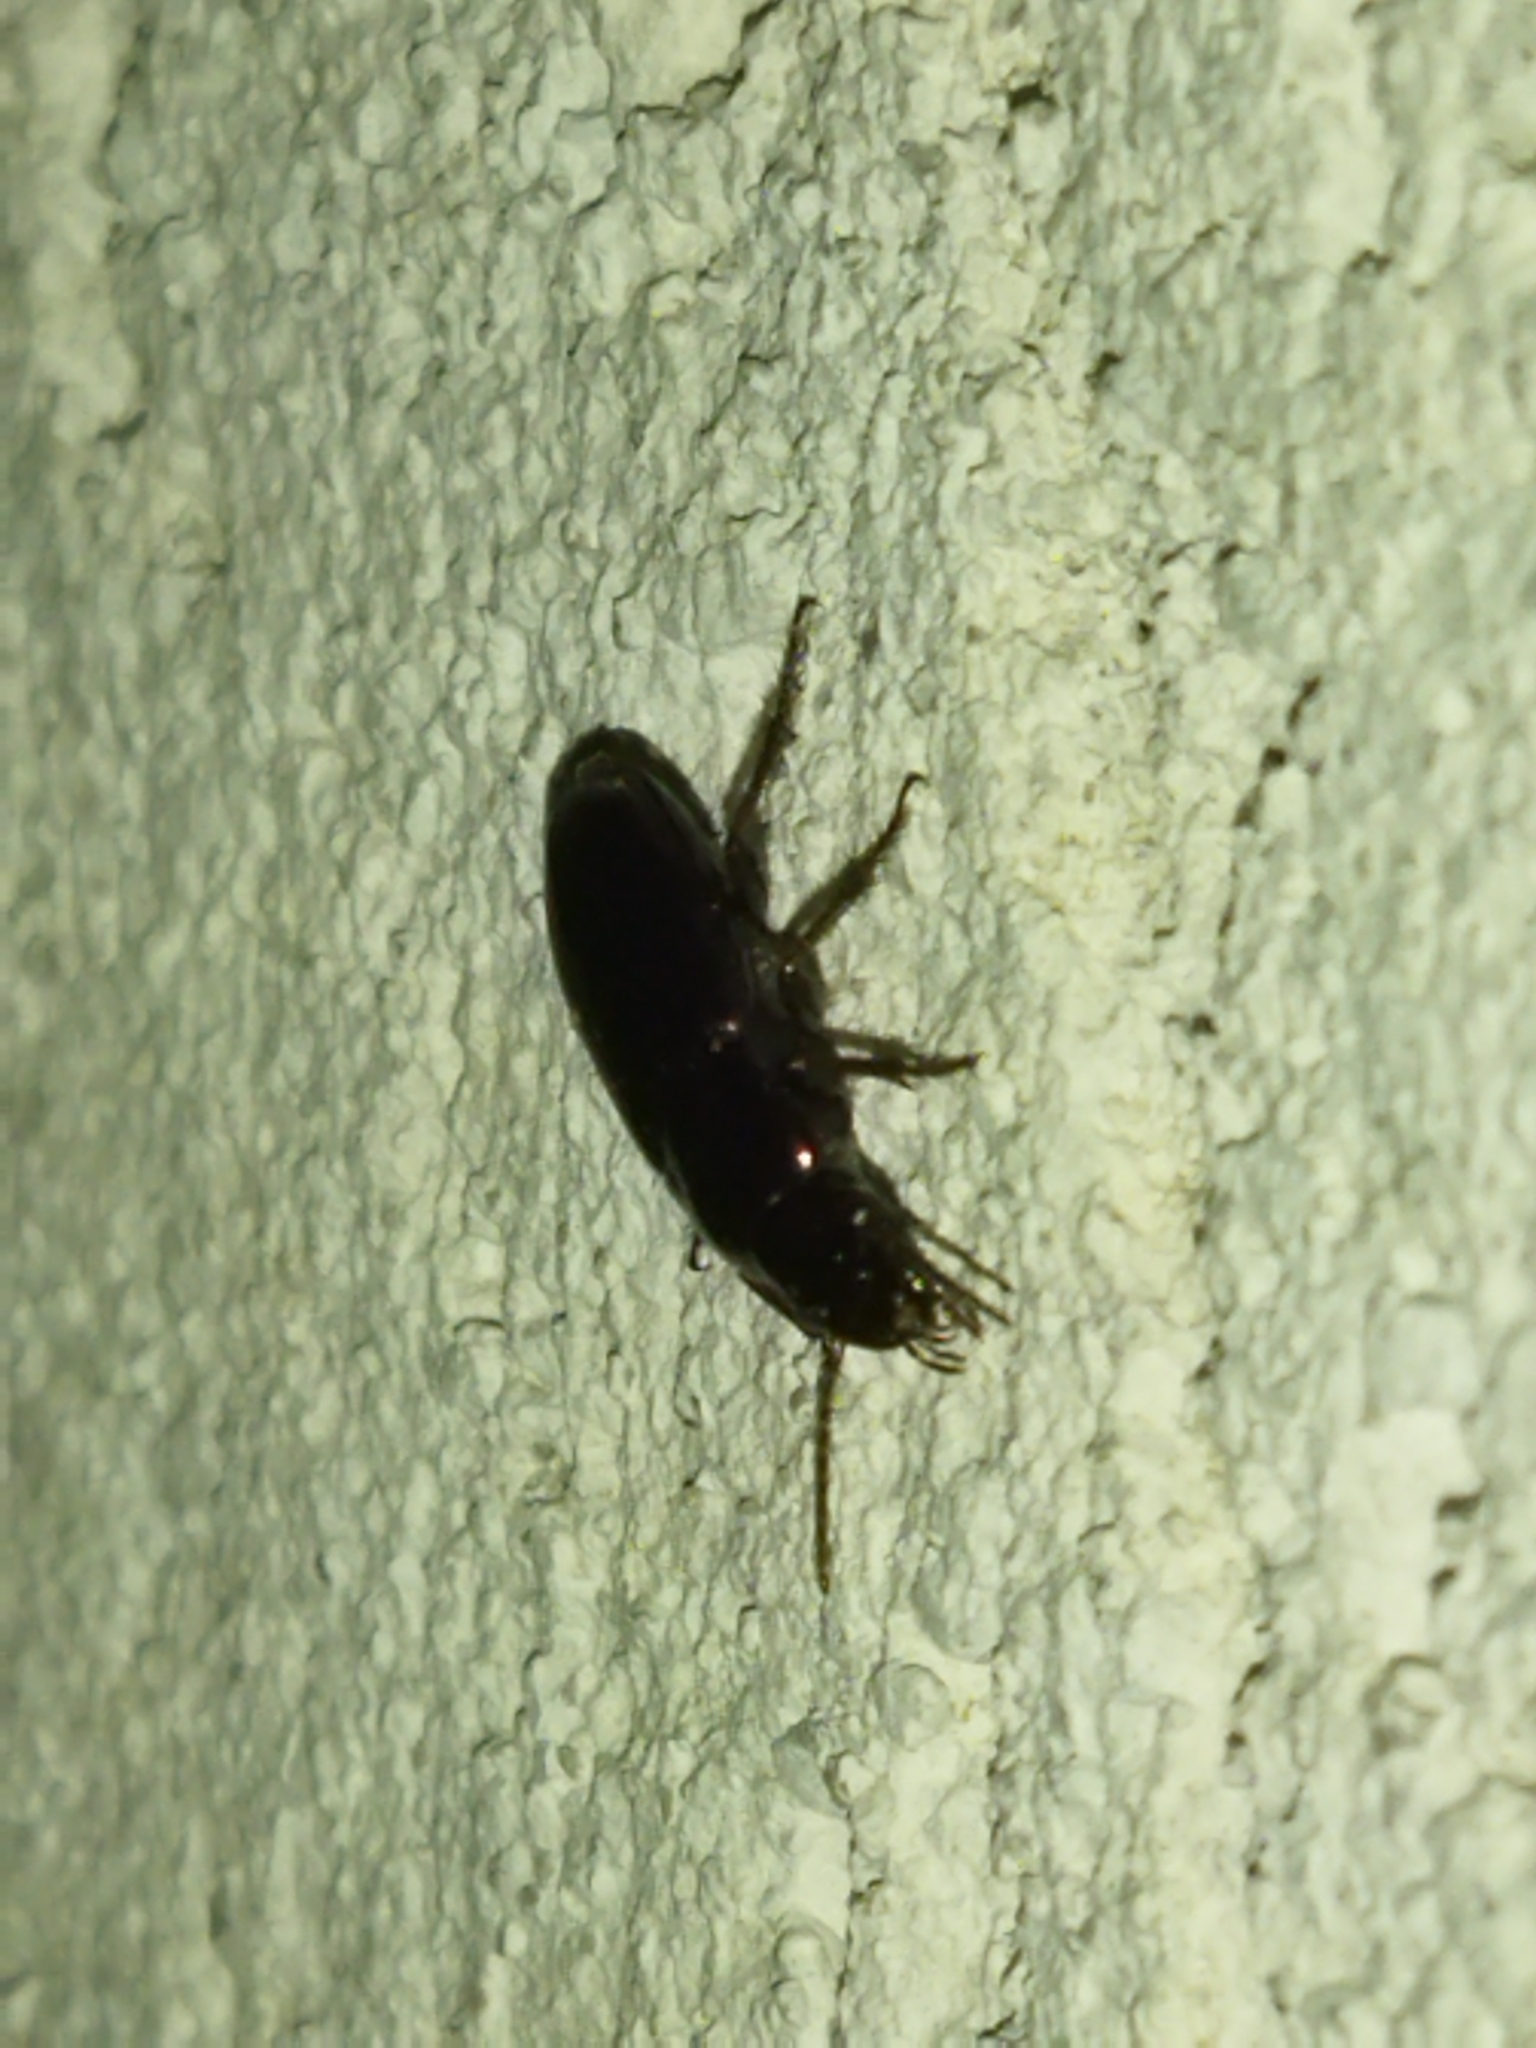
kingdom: Animalia
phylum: Arthropoda
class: Insecta
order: Coleoptera
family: Carabidae
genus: Harpalus
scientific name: Harpalus
